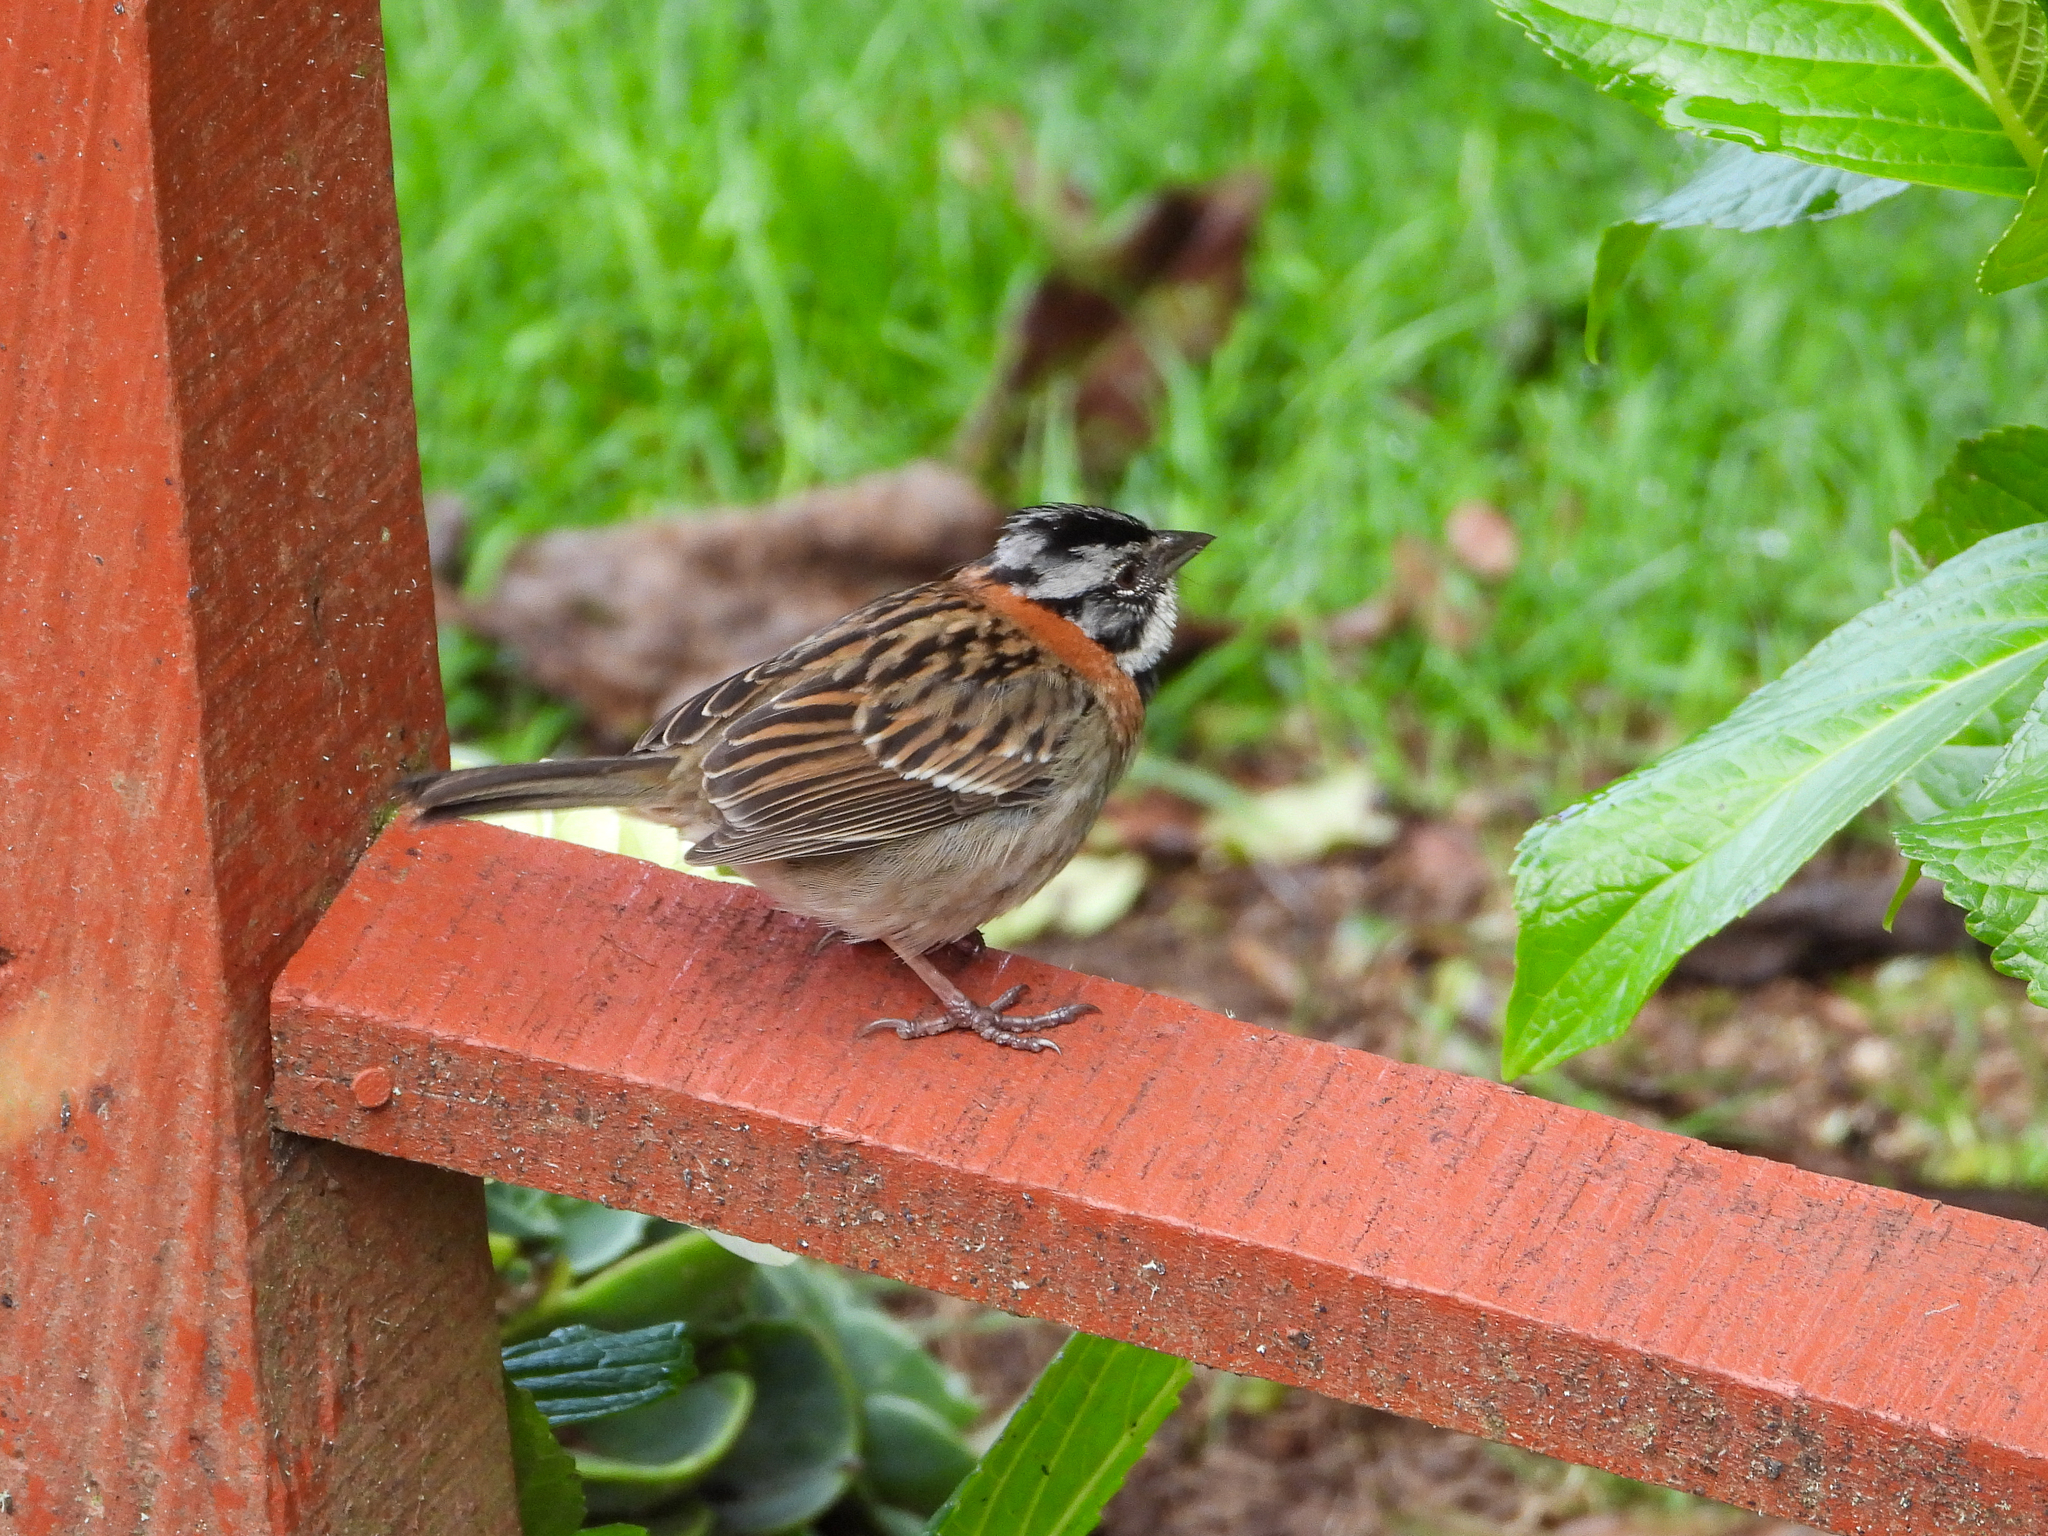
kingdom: Animalia
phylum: Chordata
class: Aves
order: Passeriformes
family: Passerellidae
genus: Zonotrichia
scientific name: Zonotrichia capensis
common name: Rufous-collared sparrow
